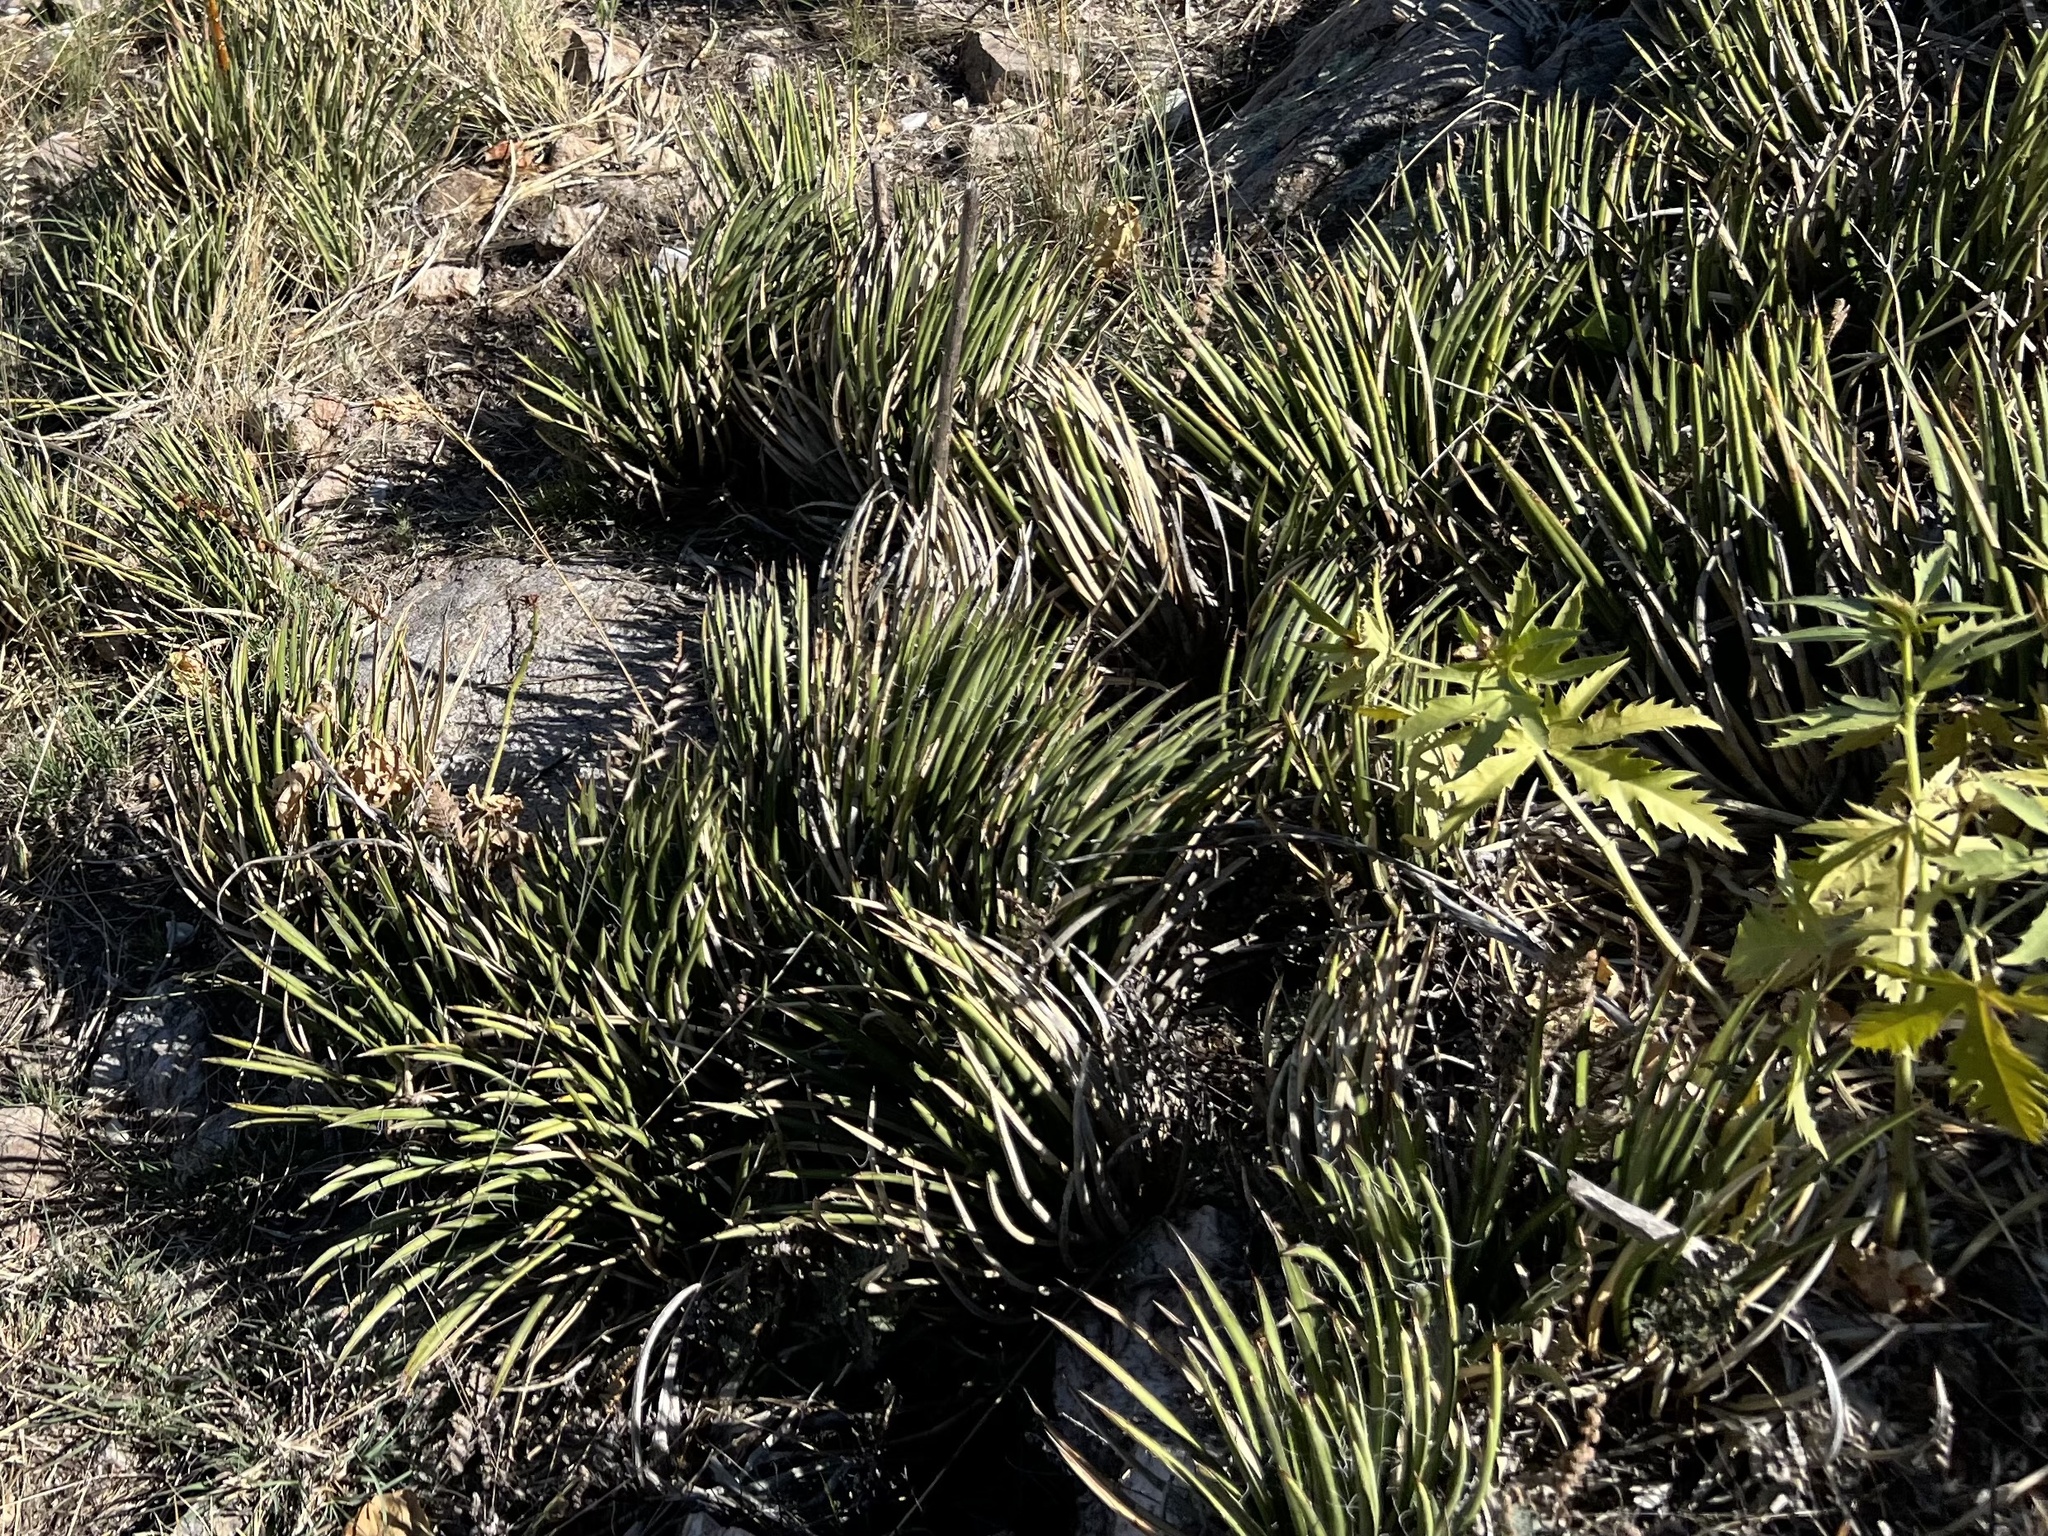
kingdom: Plantae
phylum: Tracheophyta
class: Liliopsida
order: Asparagales
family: Asparagaceae
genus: Agave
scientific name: Agave schottii
